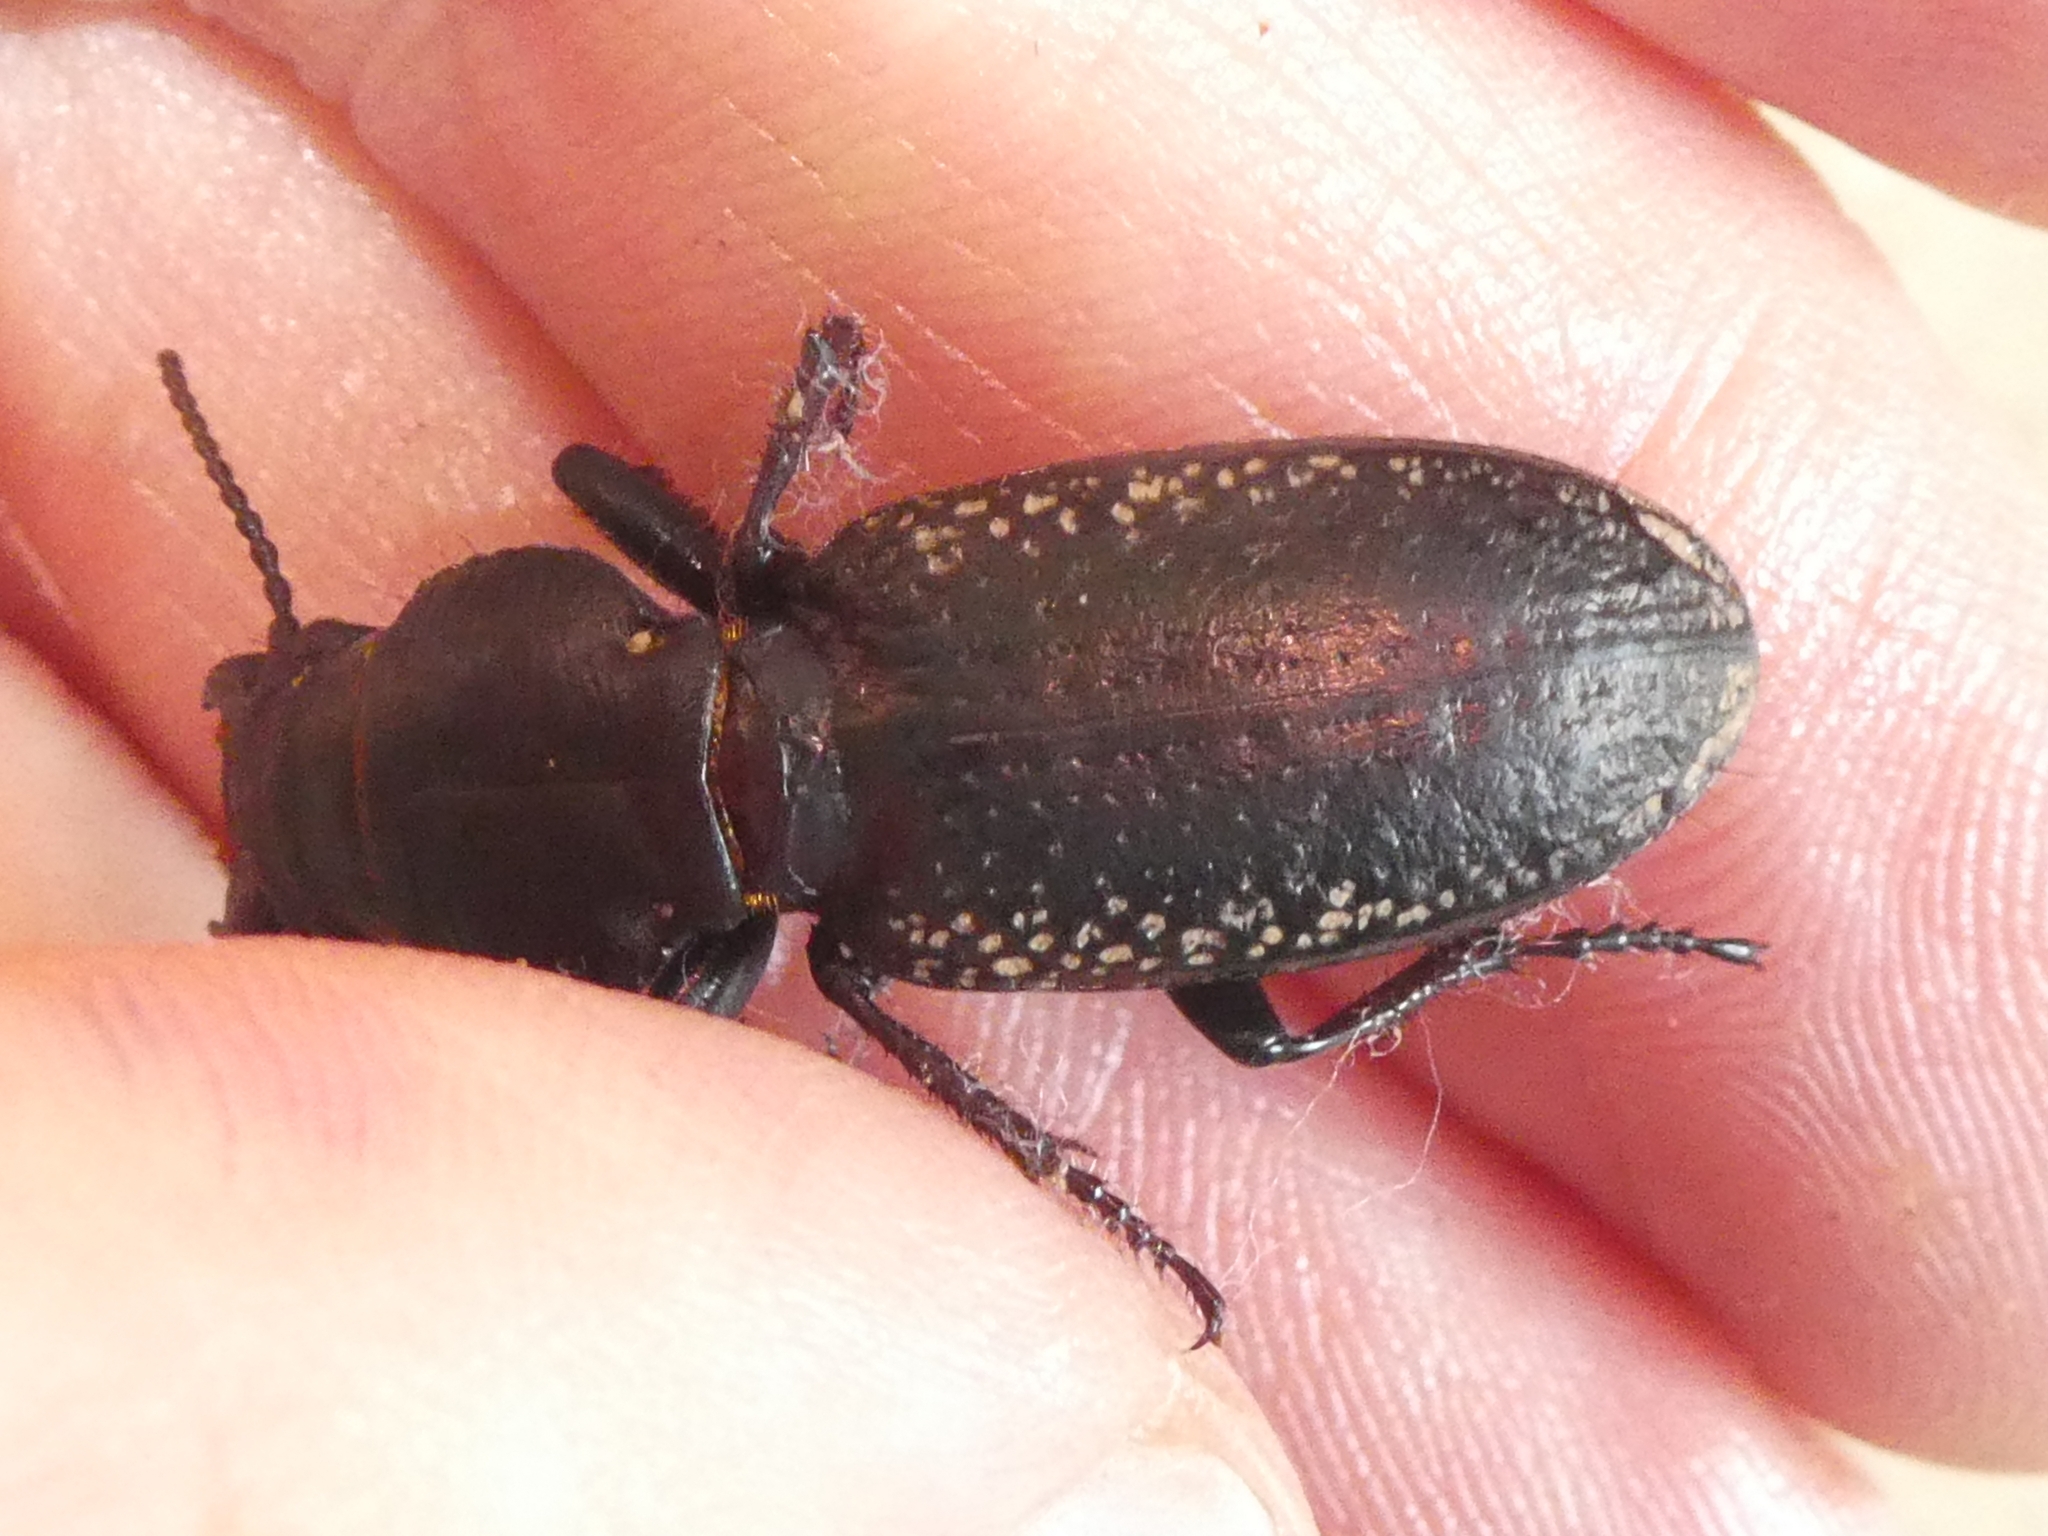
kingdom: Animalia
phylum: Arthropoda
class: Insecta
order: Coleoptera
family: Carabidae
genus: Mecodema
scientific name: Mecodema crenicolle
